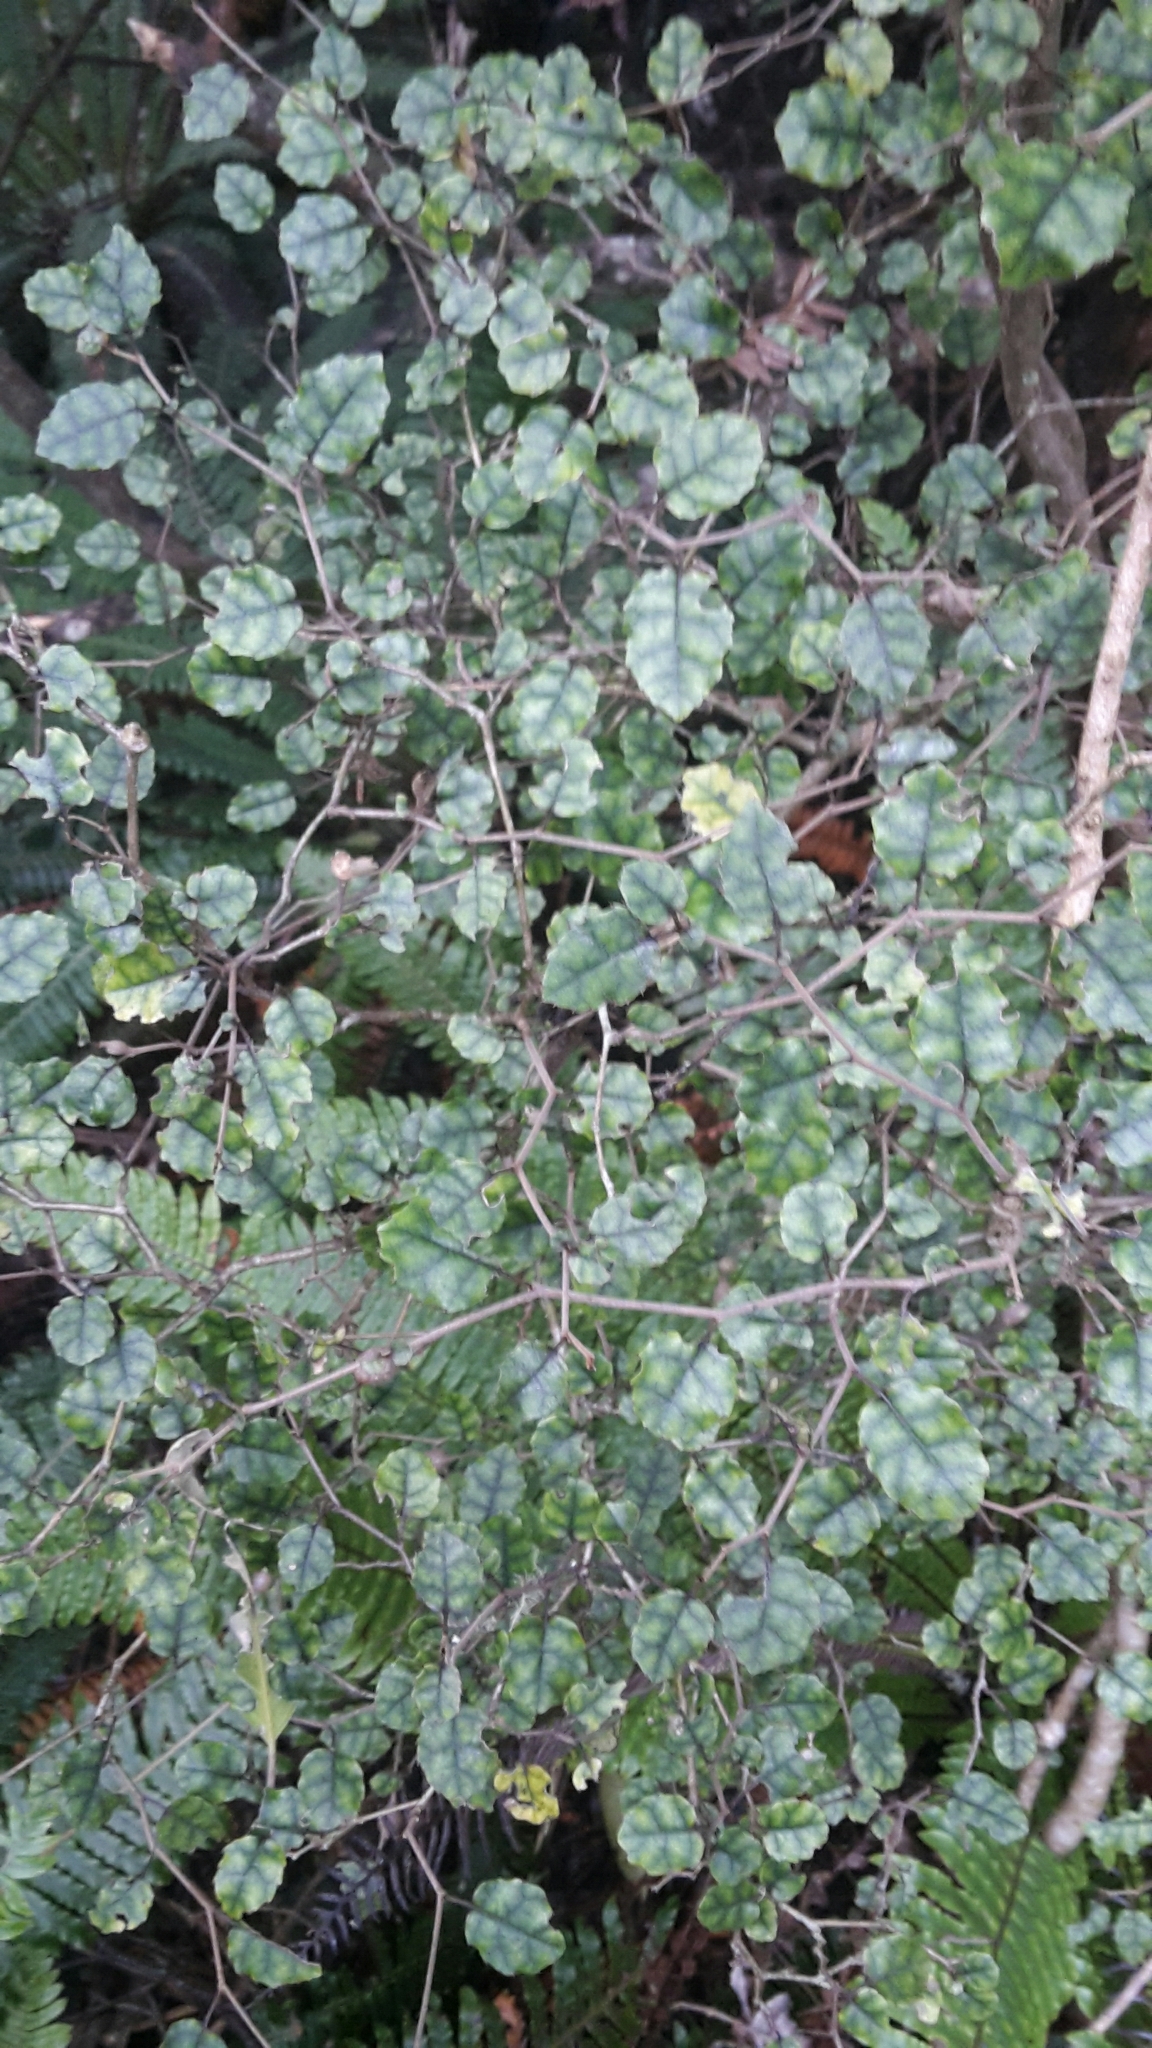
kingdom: Plantae
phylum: Tracheophyta
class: Magnoliopsida
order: Asterales
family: Rousseaceae
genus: Carpodetus
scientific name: Carpodetus serratus
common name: White mapau
